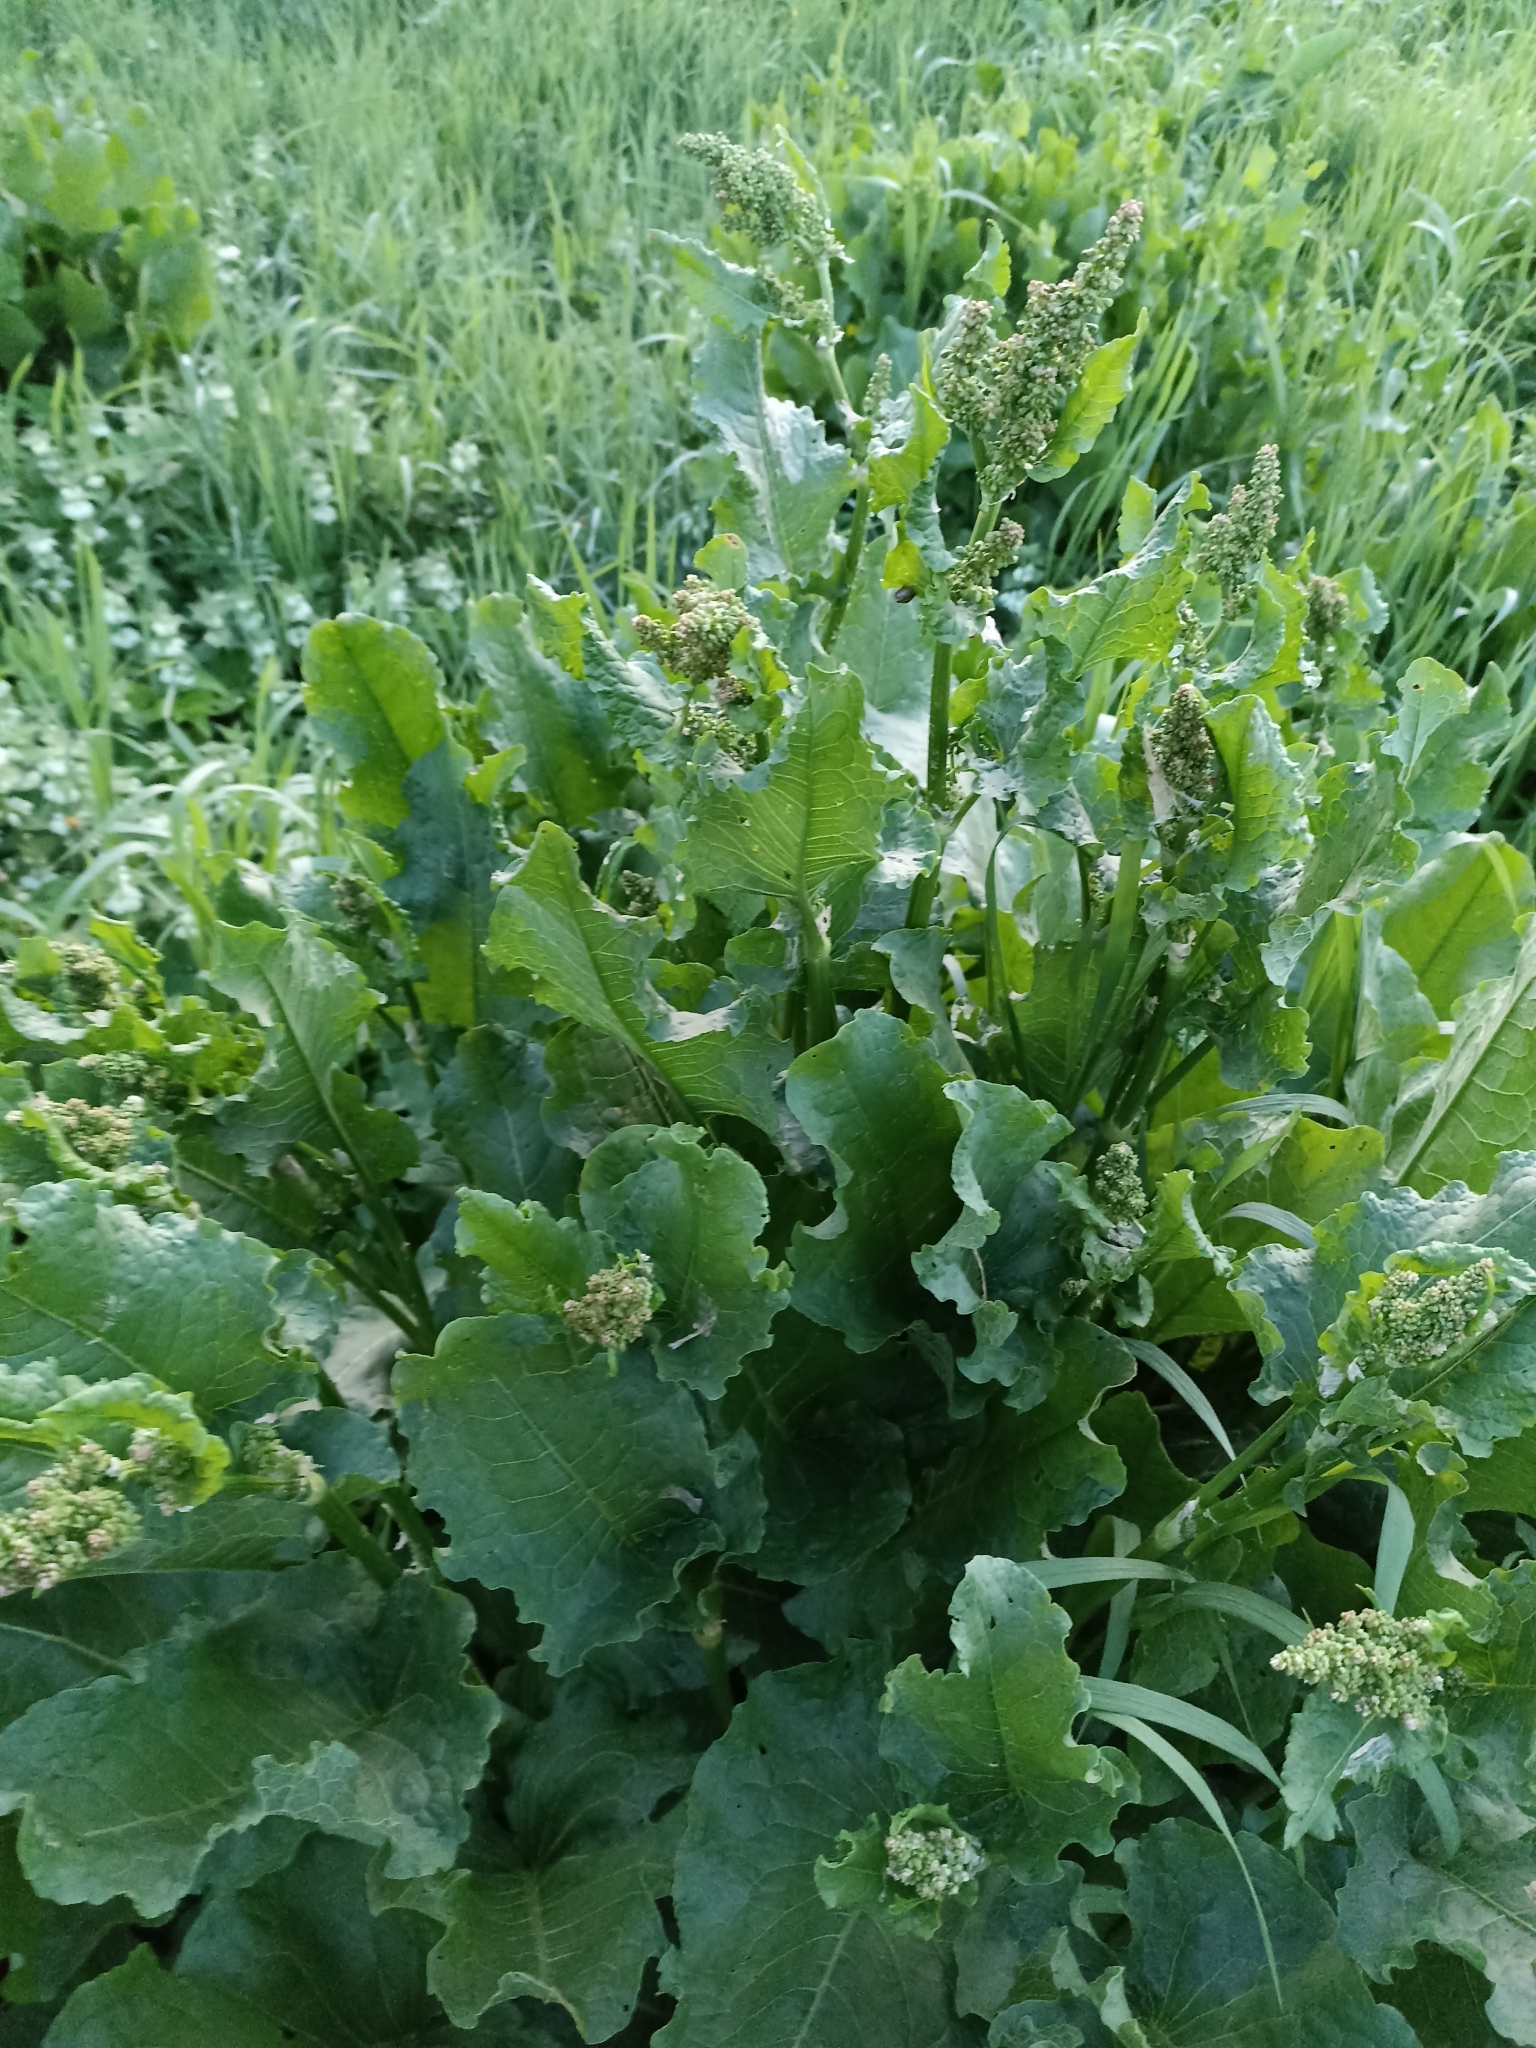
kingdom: Plantae
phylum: Tracheophyta
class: Magnoliopsida
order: Caryophyllales
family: Polygonaceae
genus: Rumex
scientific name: Rumex confertus
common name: Russian dock
